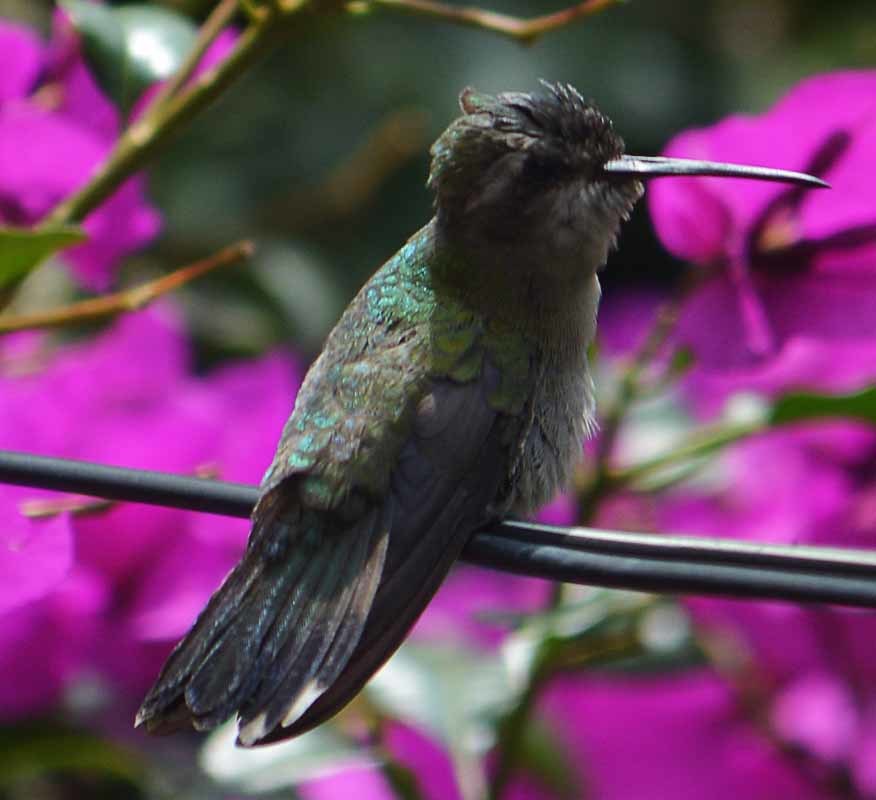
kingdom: Animalia
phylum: Chordata
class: Aves
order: Apodiformes
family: Trochilidae
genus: Cynanthus
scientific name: Cynanthus latirostris
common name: Broad-billed hummingbird
